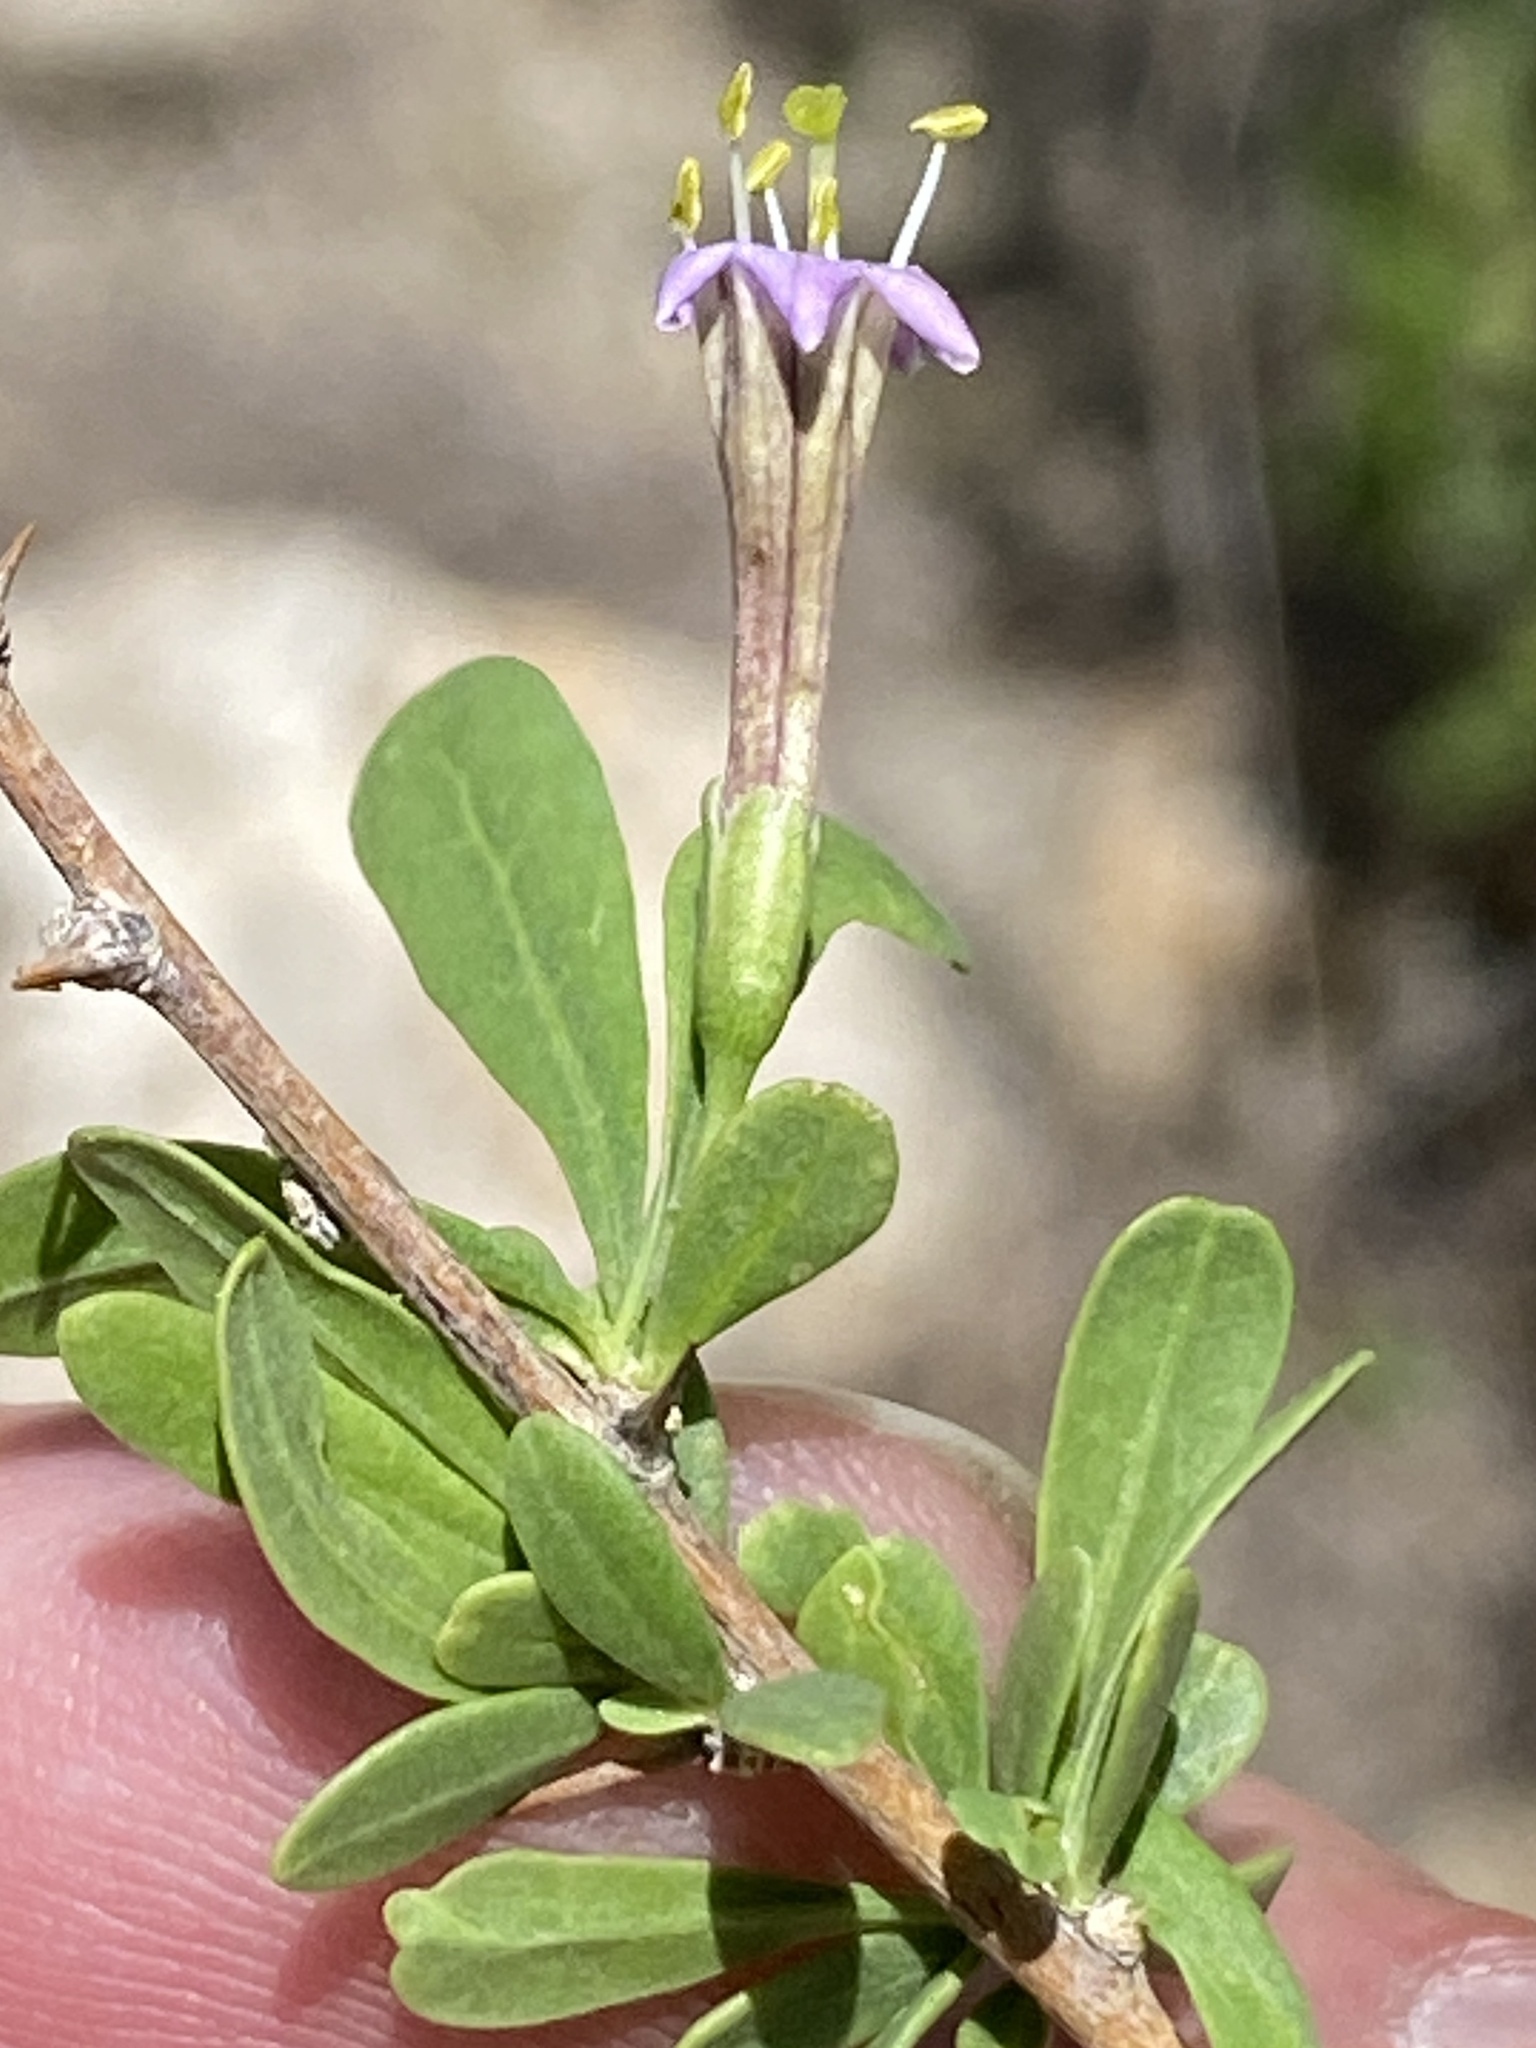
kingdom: Plantae
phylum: Tracheophyta
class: Magnoliopsida
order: Solanales
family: Solanaceae
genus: Lycium
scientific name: Lycium bosciifolium
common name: Limpopo honey-thorn
